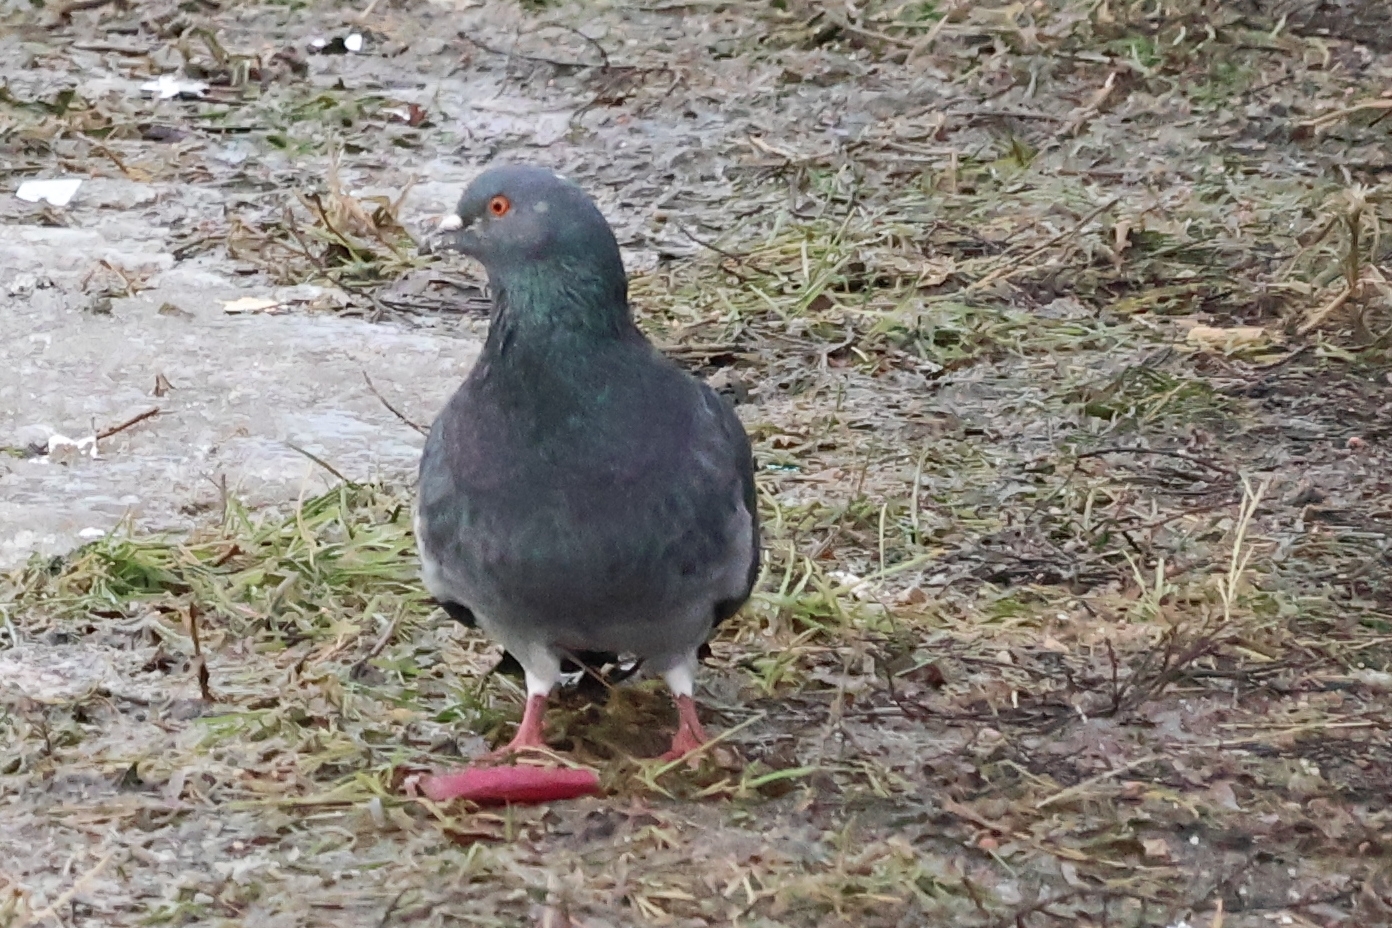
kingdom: Animalia
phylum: Chordata
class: Aves
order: Columbiformes
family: Columbidae
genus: Columba
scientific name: Columba livia
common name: Rock pigeon
